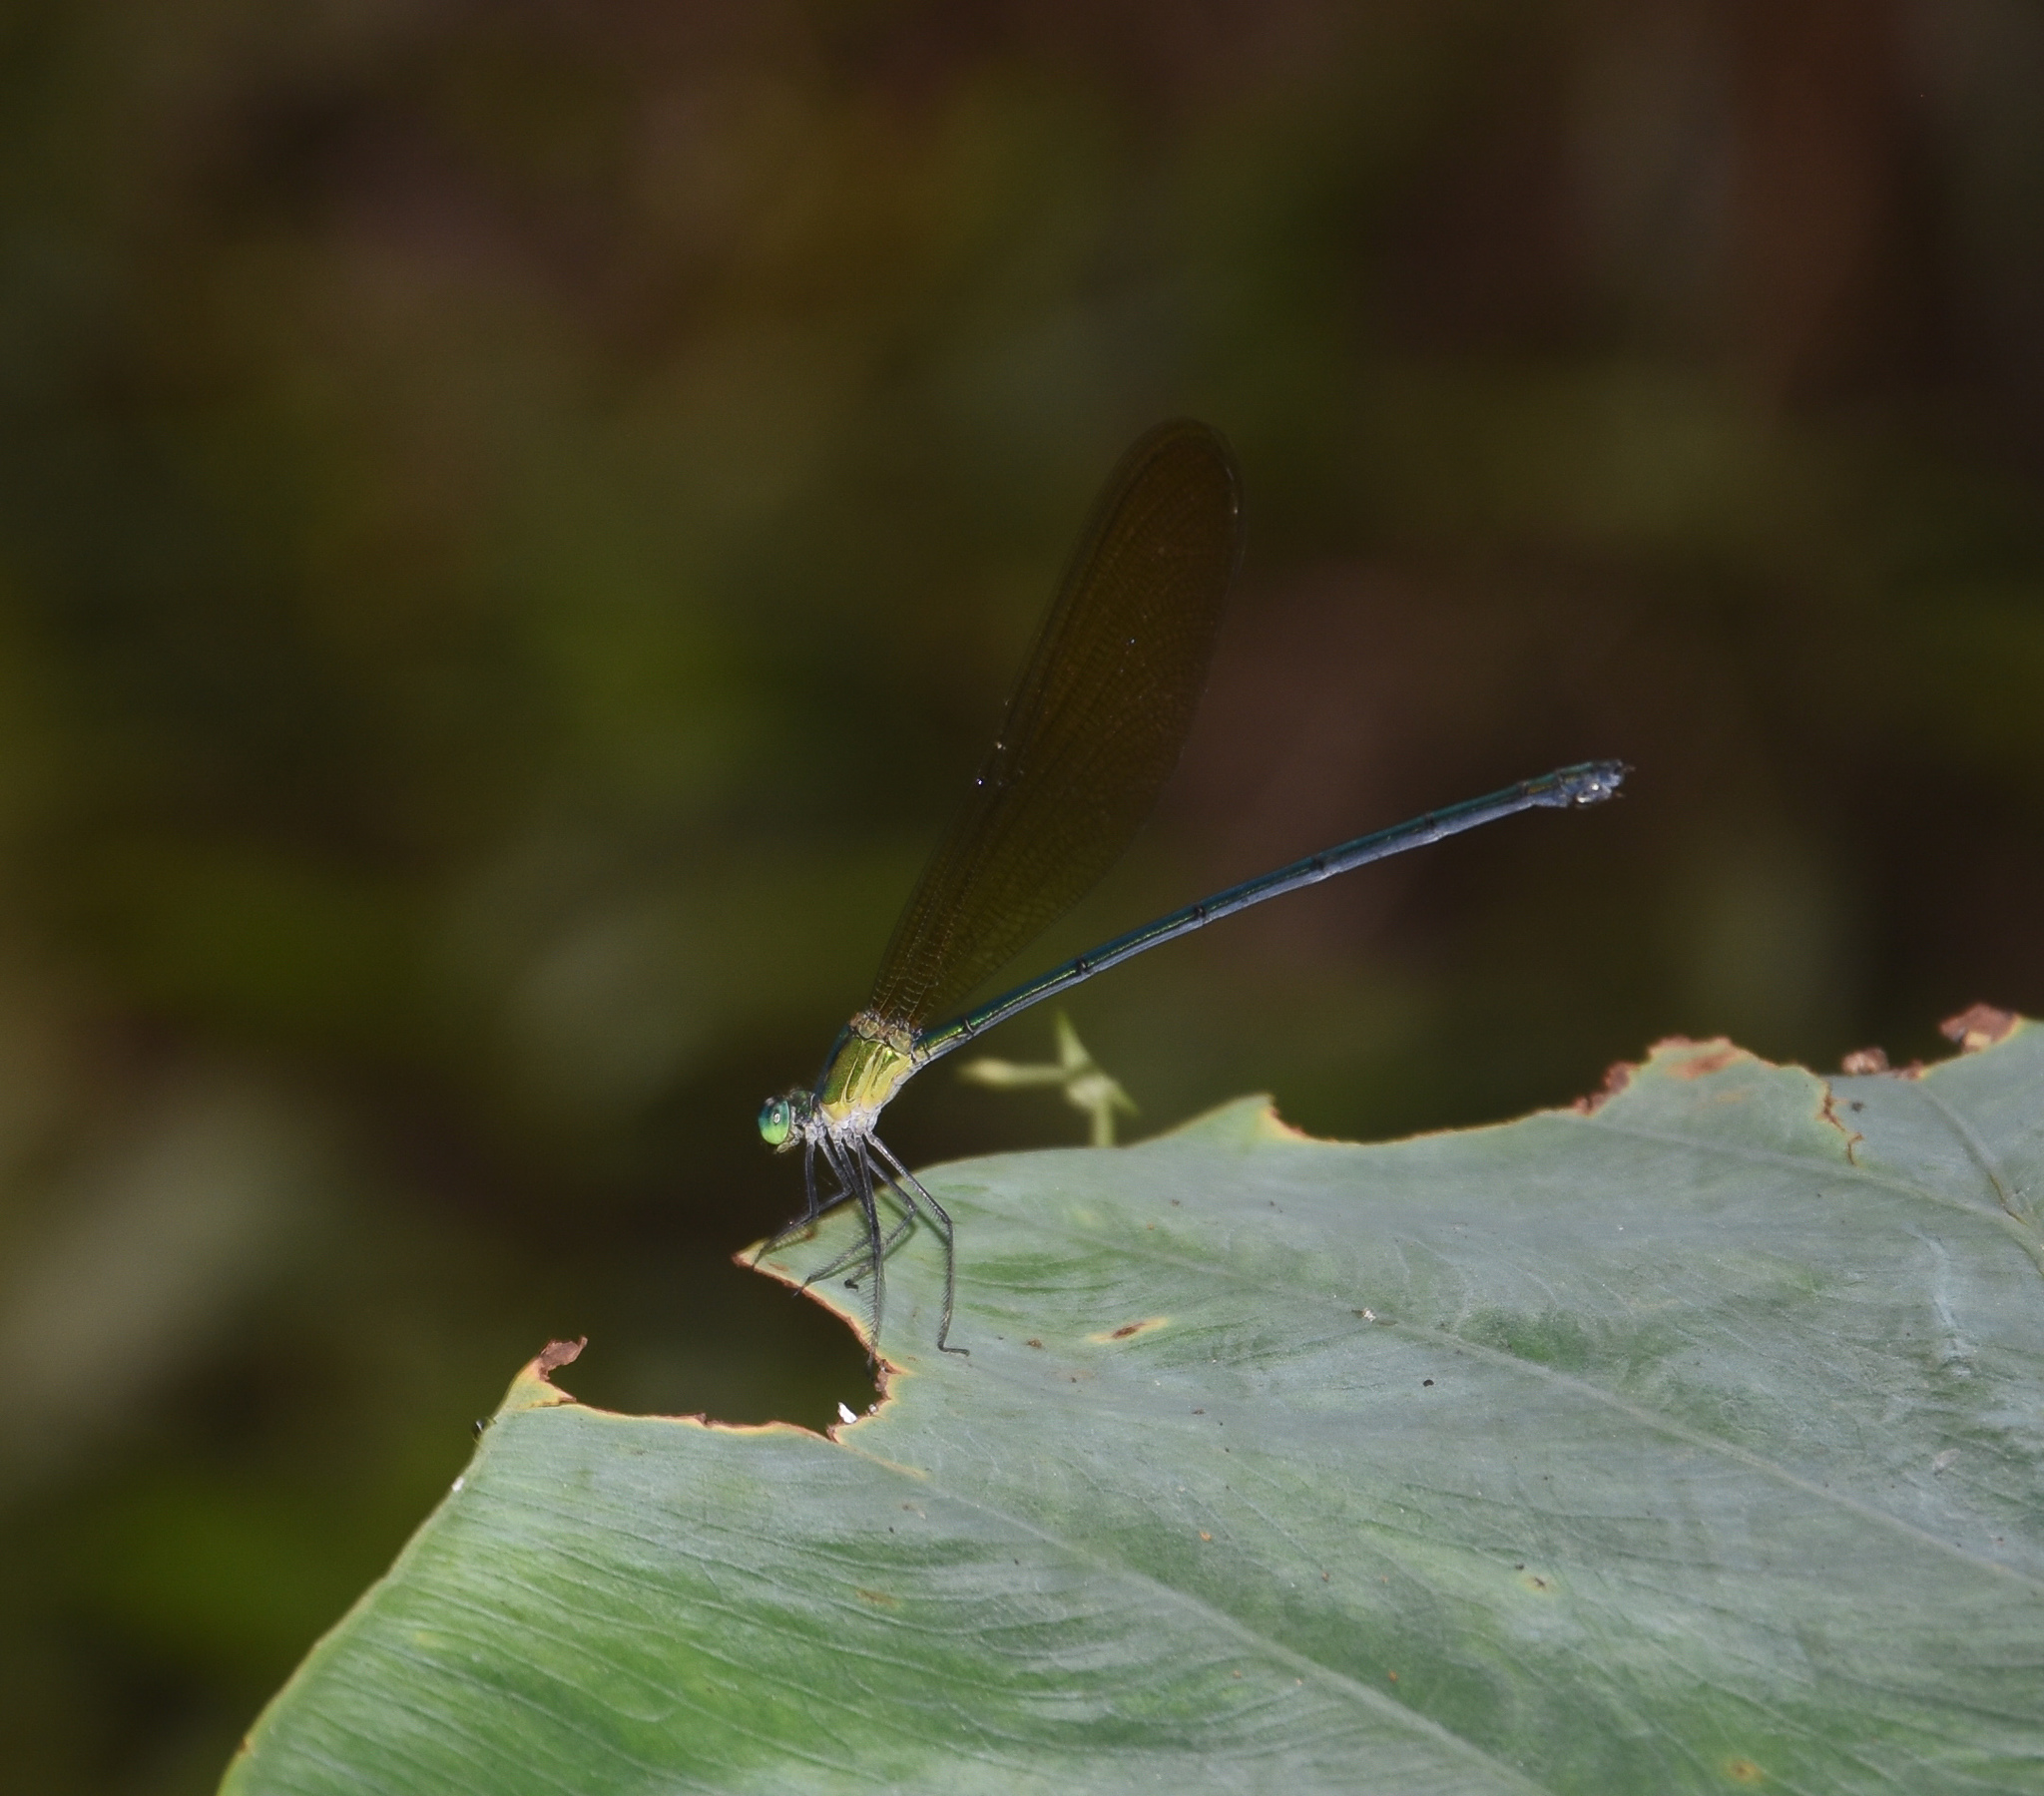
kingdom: Animalia
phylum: Arthropoda
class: Insecta
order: Odonata
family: Calopterygidae
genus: Vestalis
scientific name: Vestalis gracilis
